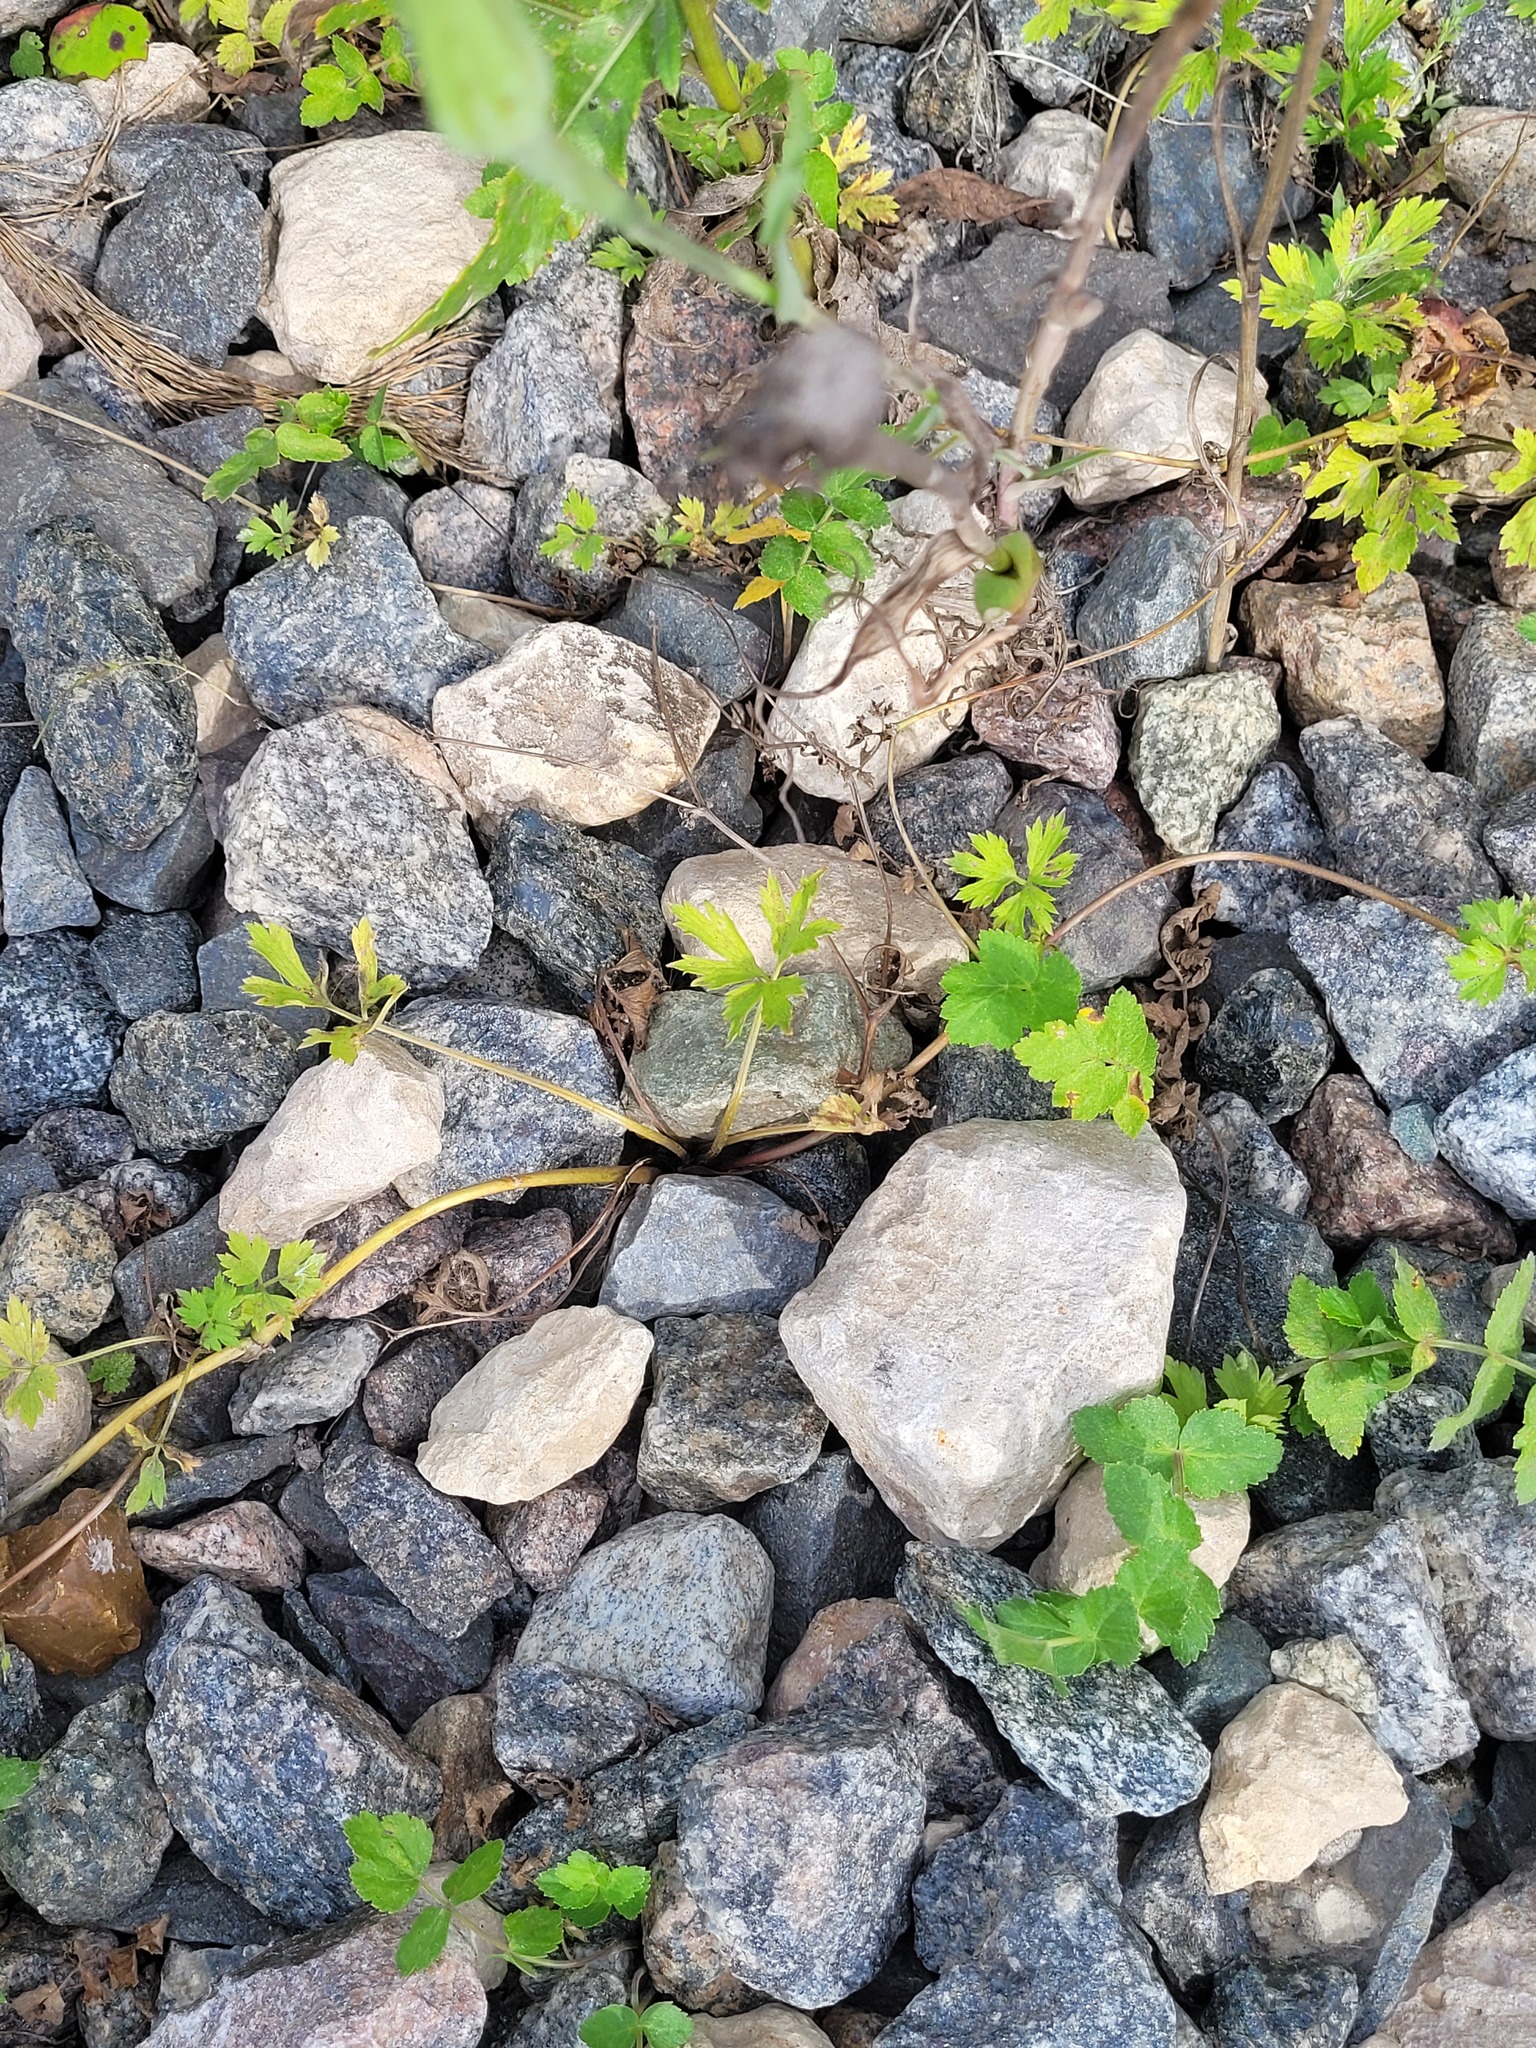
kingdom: Plantae
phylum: Tracheophyta
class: Magnoliopsida
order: Ranunculales
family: Ranunculaceae
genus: Ranunculus
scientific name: Ranunculus repens
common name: Creeping buttercup
